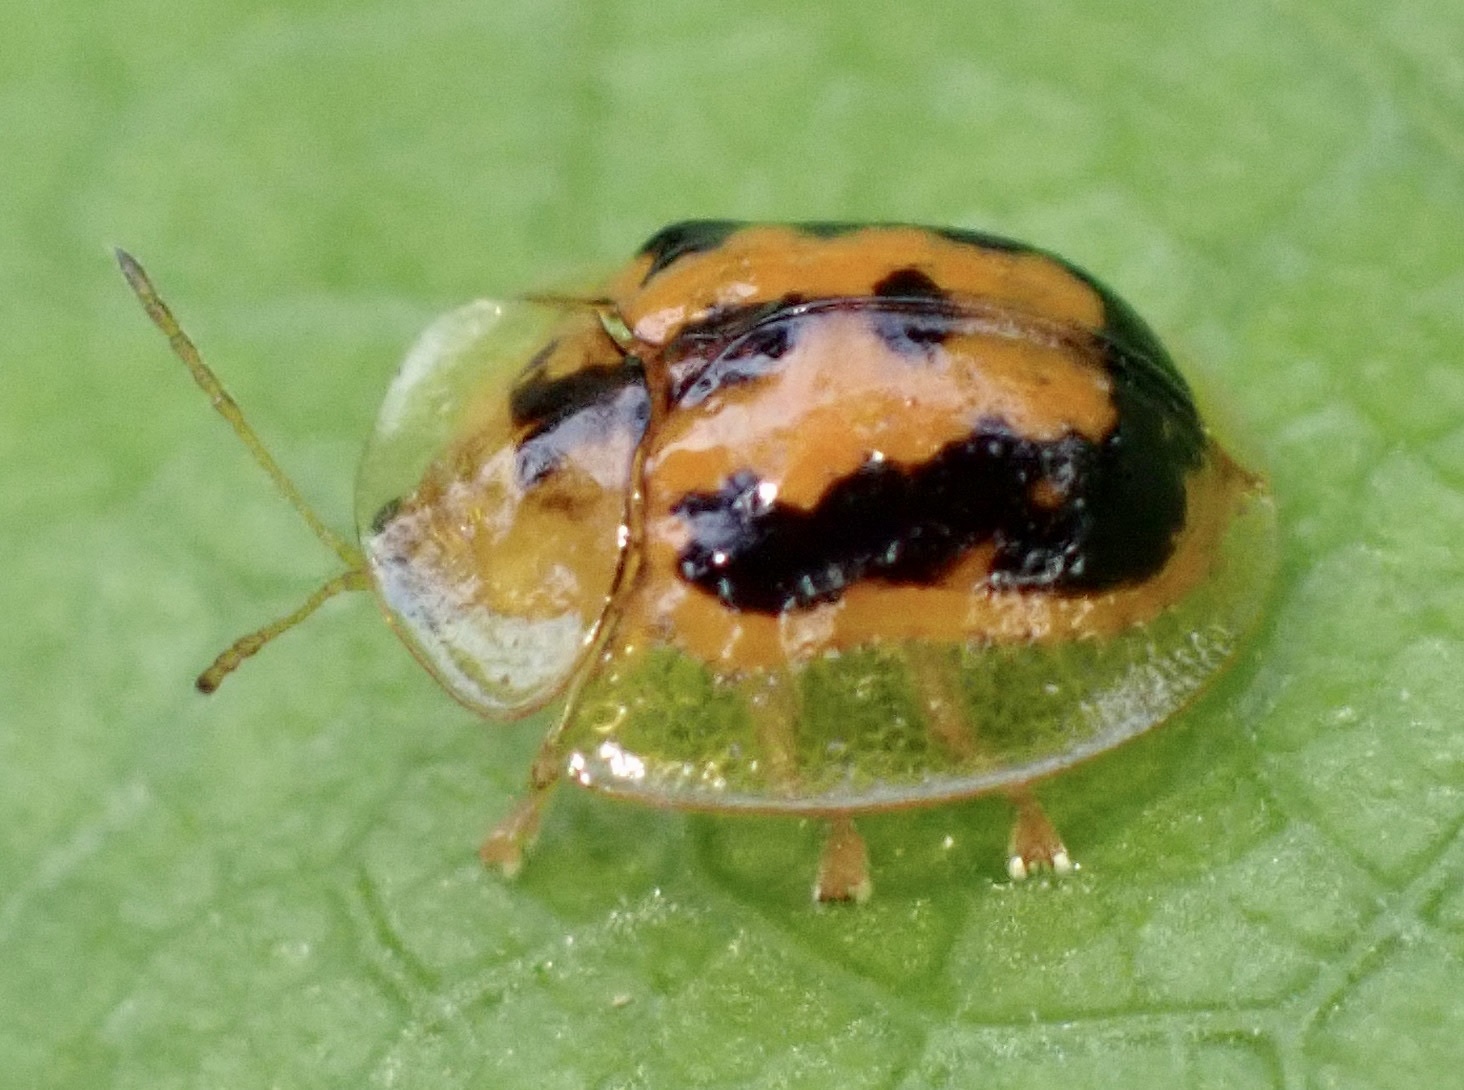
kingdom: Animalia
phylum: Arthropoda
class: Insecta
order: Coleoptera
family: Chrysomelidae
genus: Cassida
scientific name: Cassida papuana
